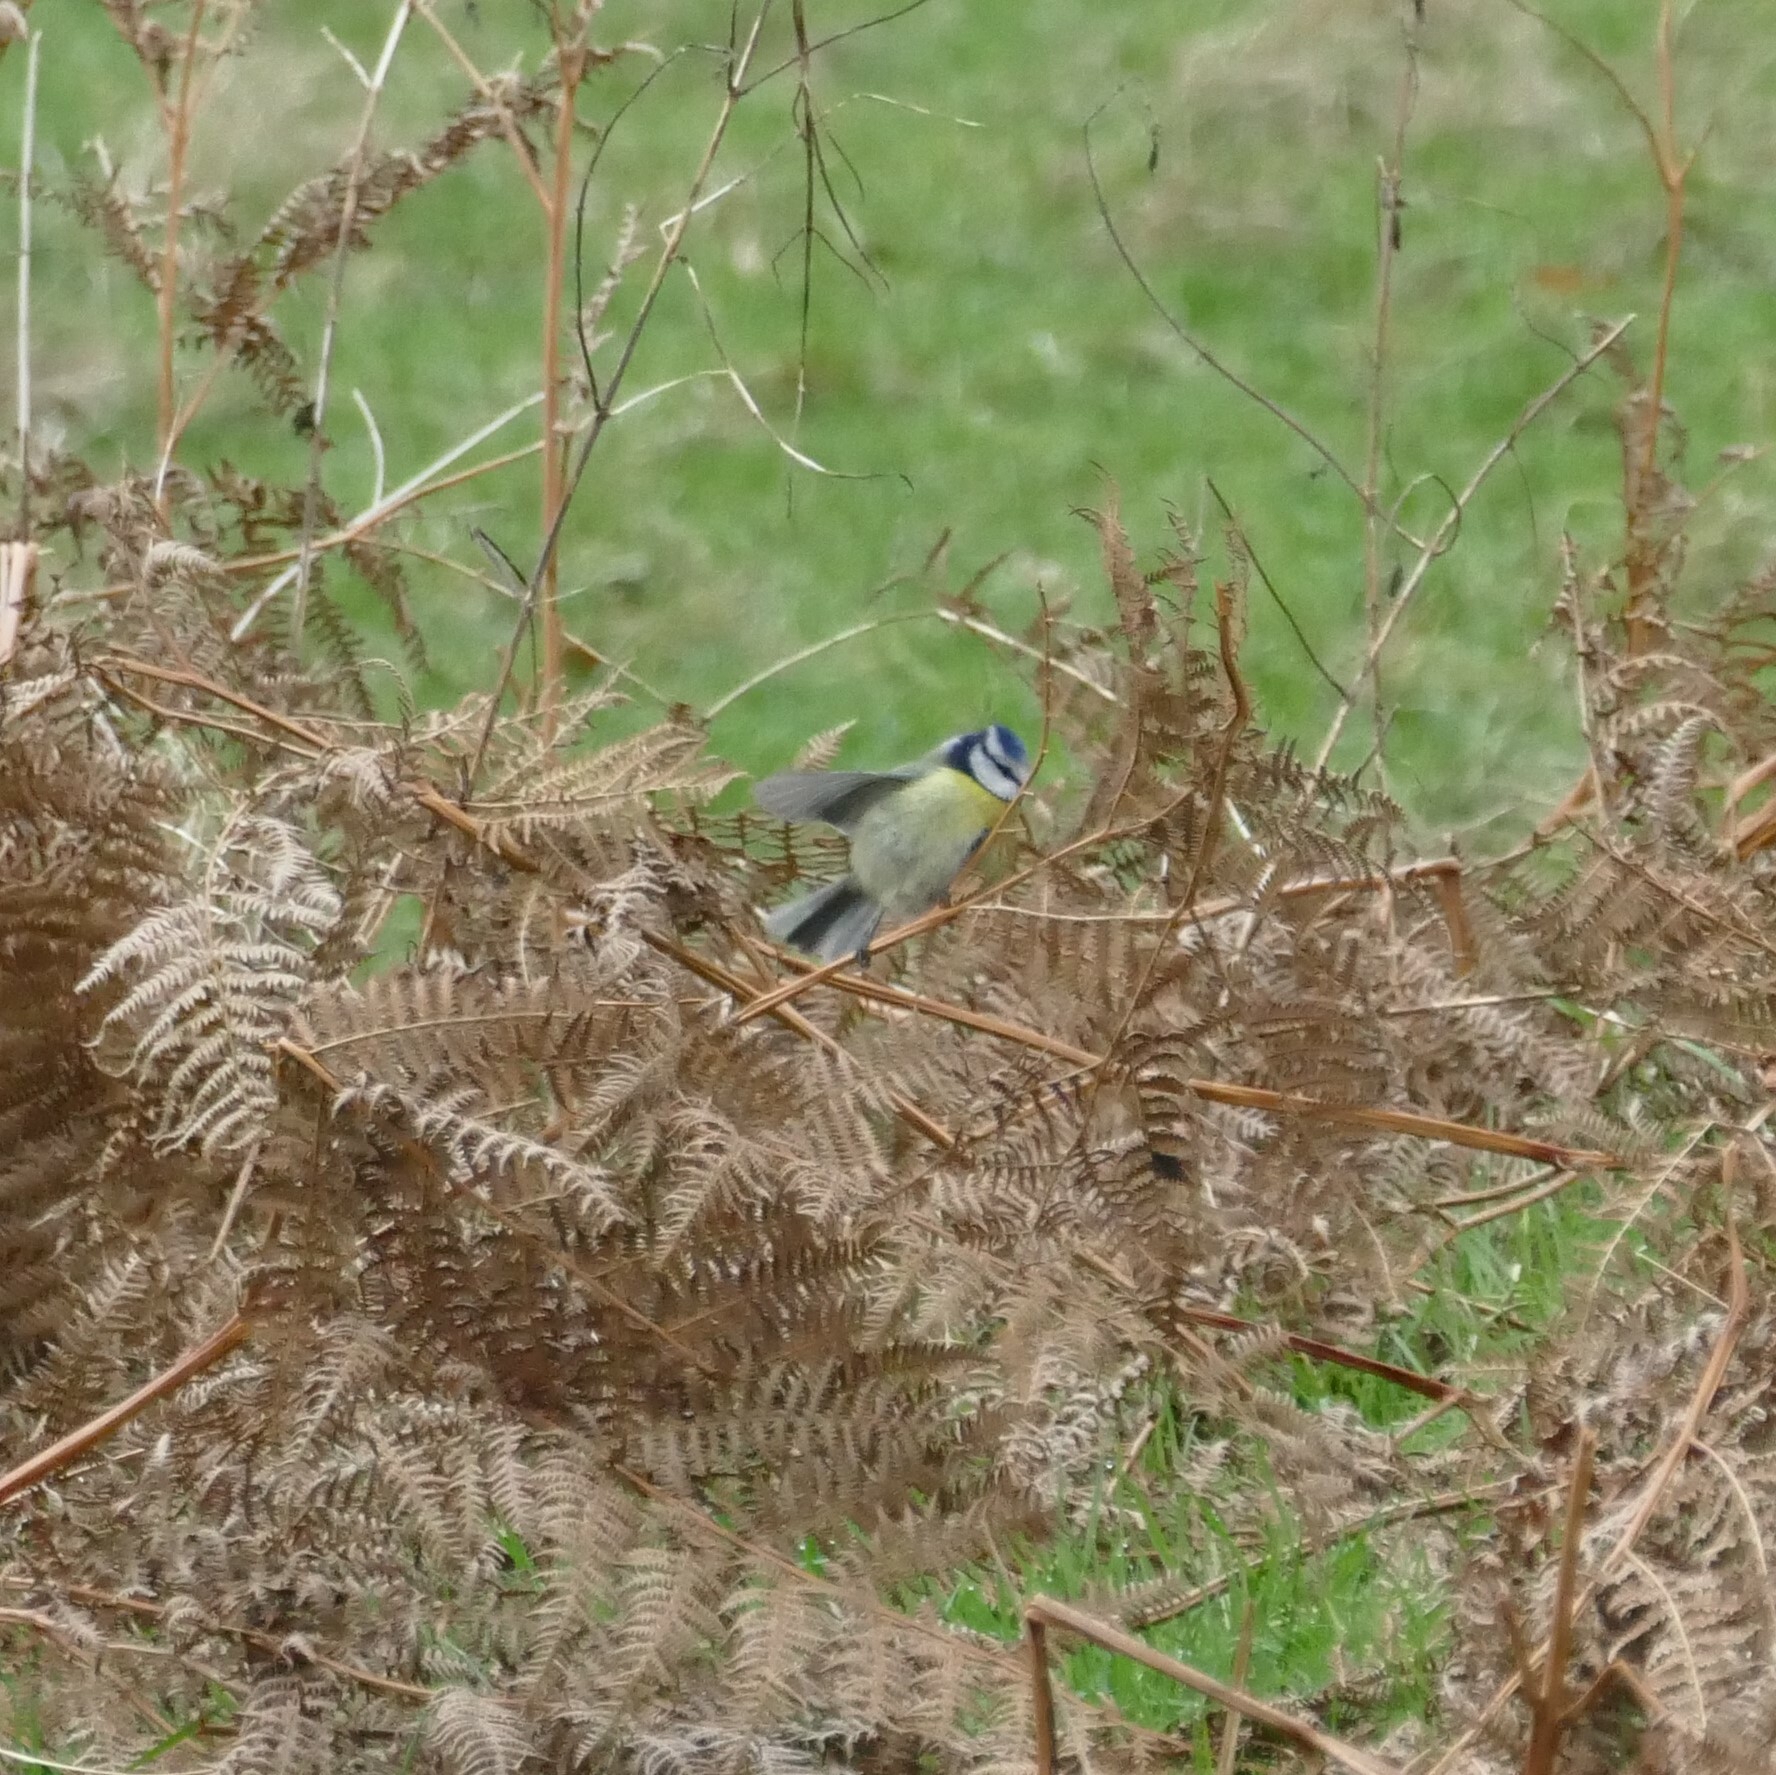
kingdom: Animalia
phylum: Chordata
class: Aves
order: Passeriformes
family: Paridae
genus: Cyanistes
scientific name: Cyanistes caeruleus
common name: Eurasian blue tit
